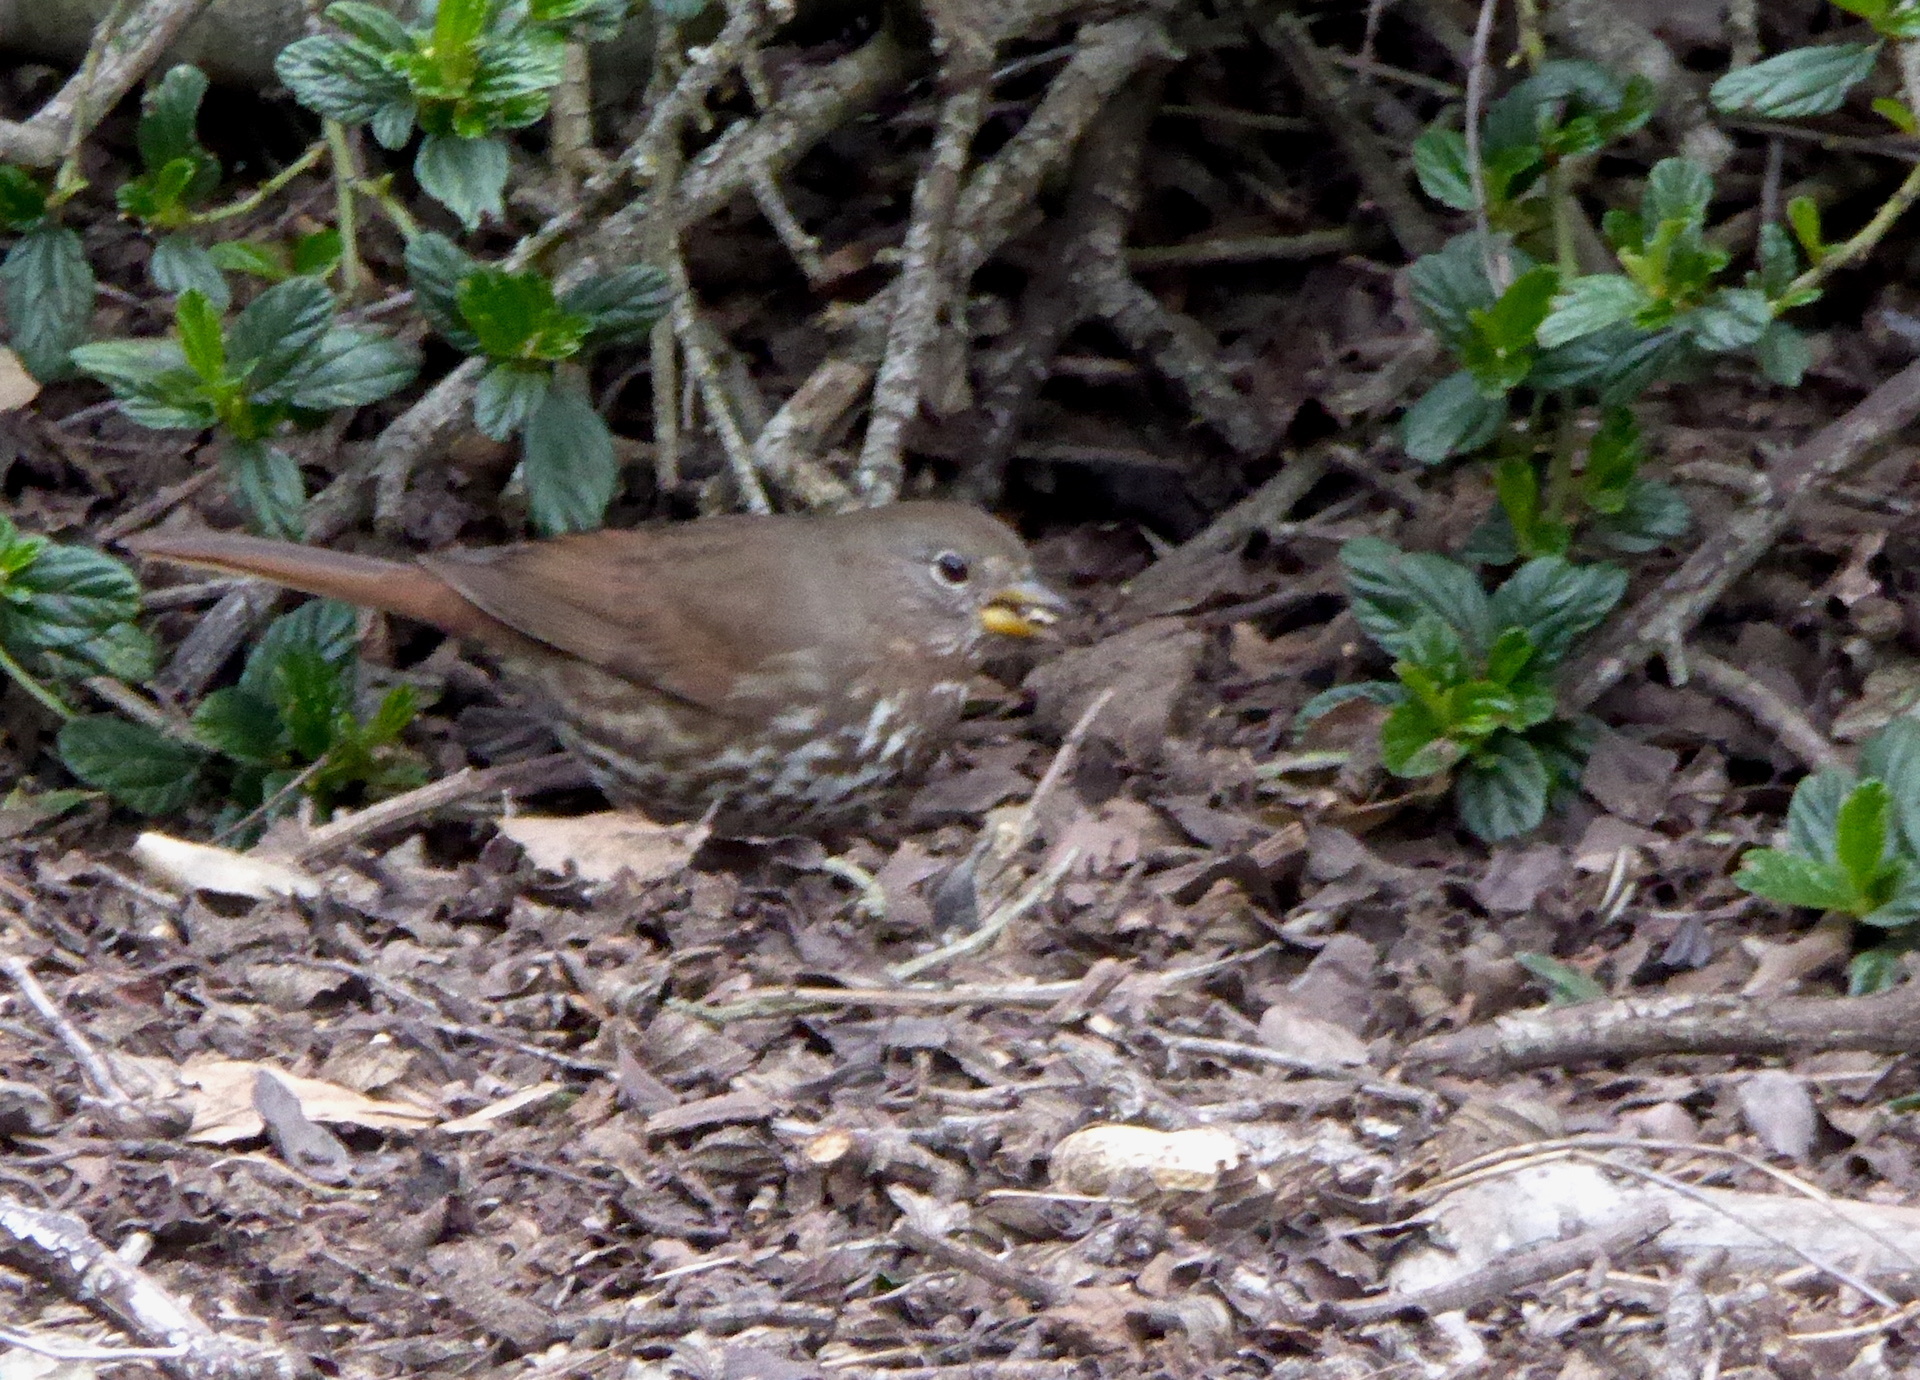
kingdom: Animalia
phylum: Chordata
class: Aves
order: Passeriformes
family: Passerellidae
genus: Passerella
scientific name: Passerella iliaca
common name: Fox sparrow
